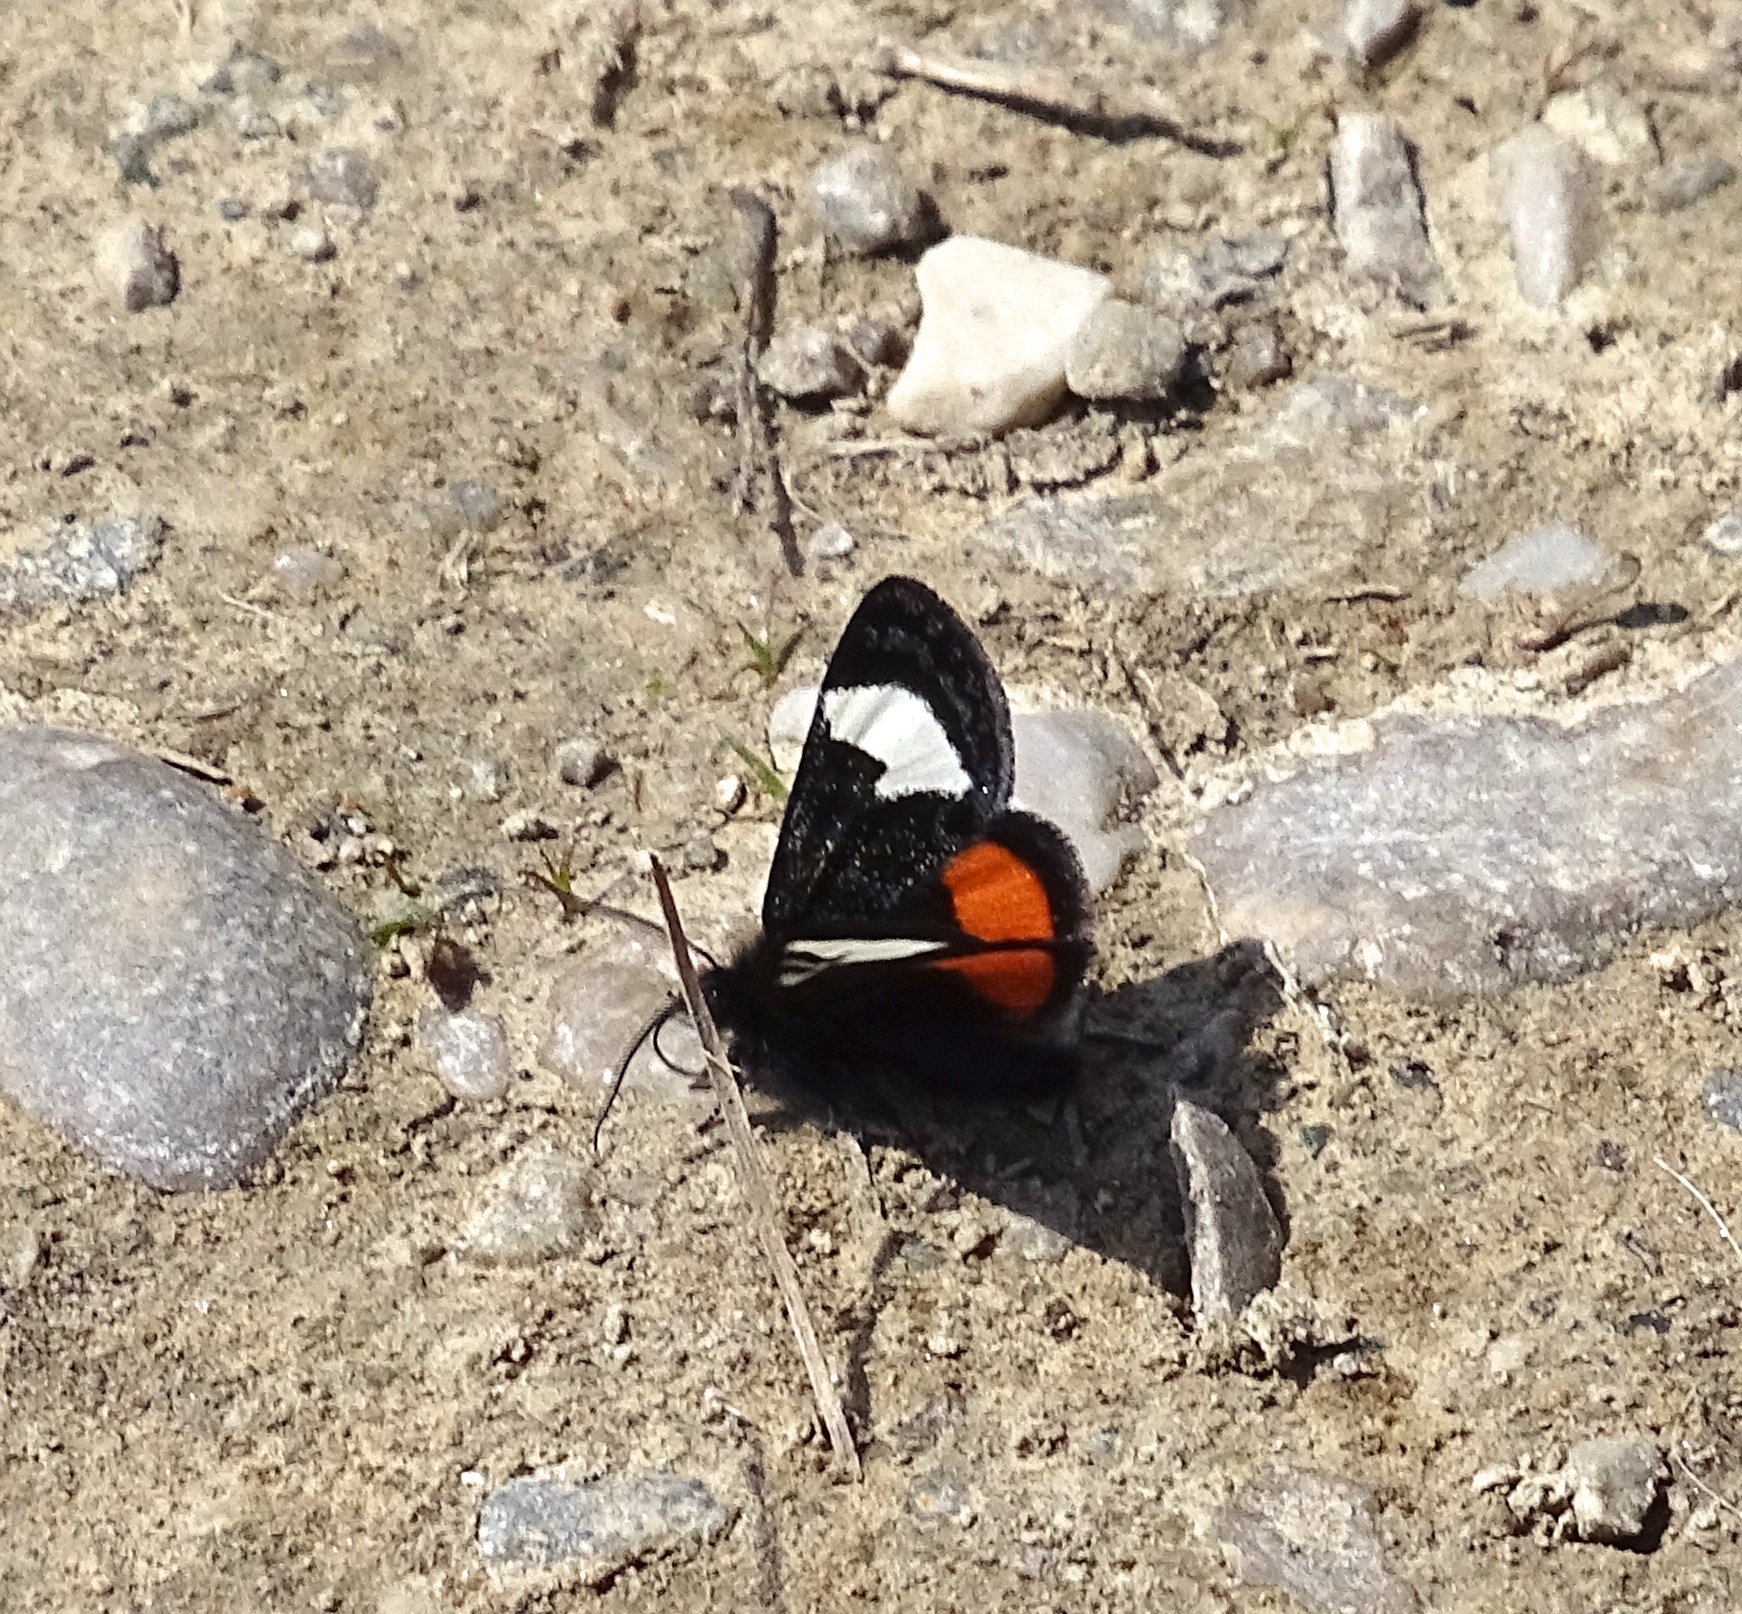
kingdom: Animalia
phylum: Arthropoda
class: Insecta
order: Lepidoptera
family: Noctuidae
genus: Psychomorpha
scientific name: Psychomorpha epimenis
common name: Grapevine epimenis moth
